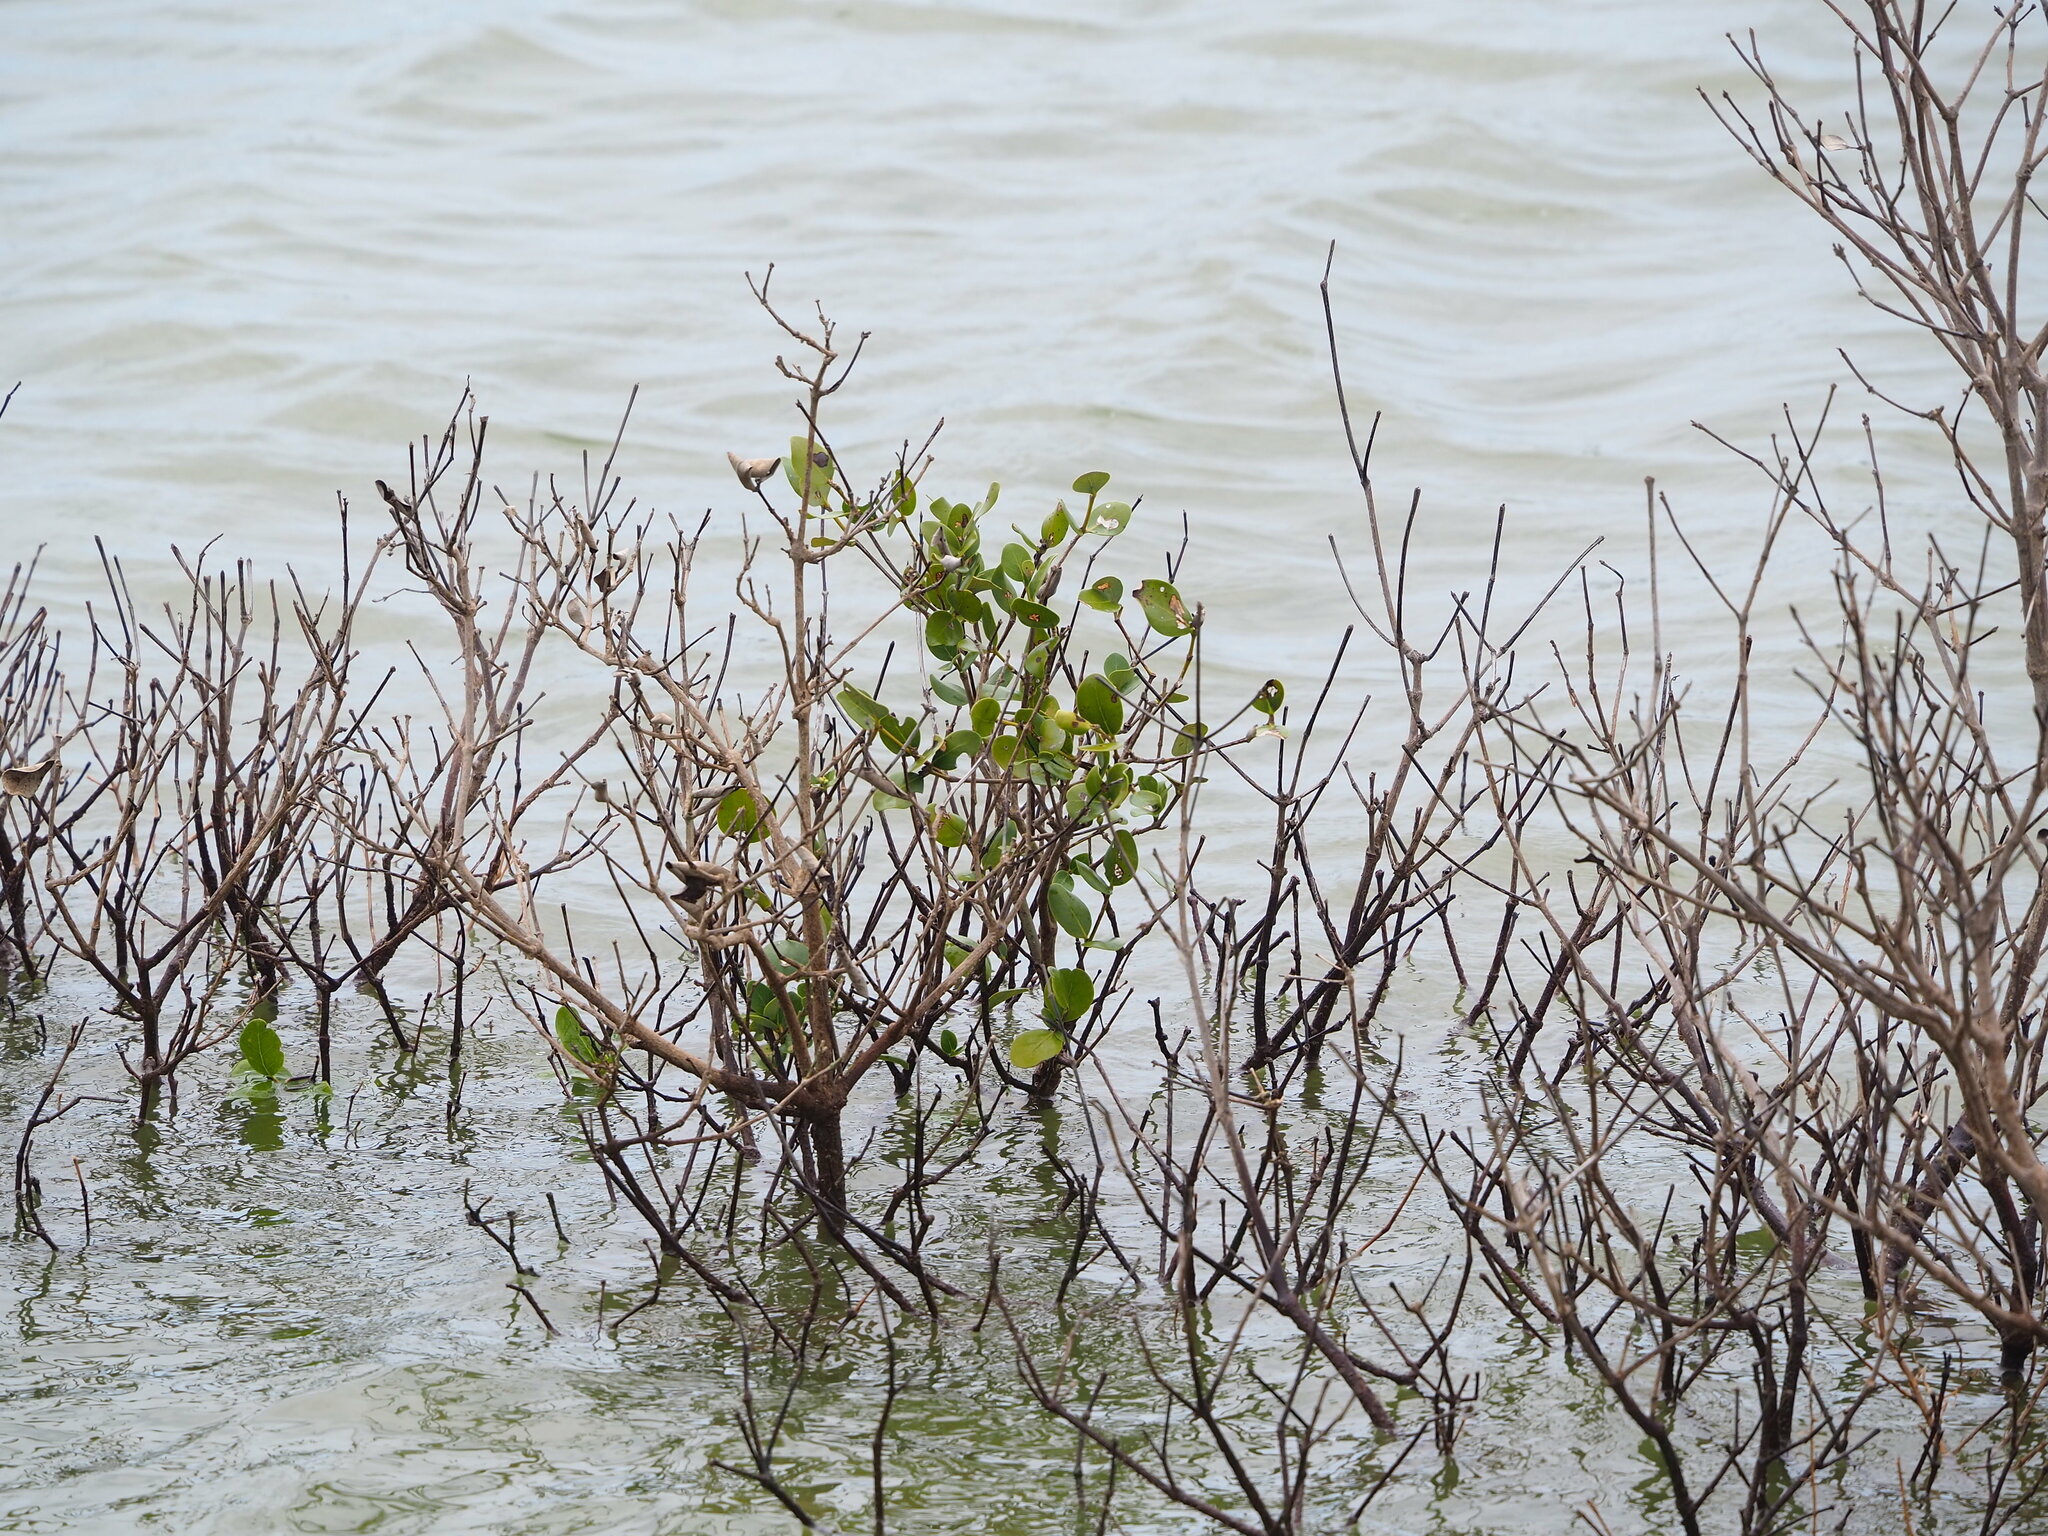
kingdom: Plantae
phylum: Tracheophyta
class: Magnoliopsida
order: Lamiales
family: Acanthaceae
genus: Avicennia
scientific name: Avicennia marina
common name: Gray mangrove
